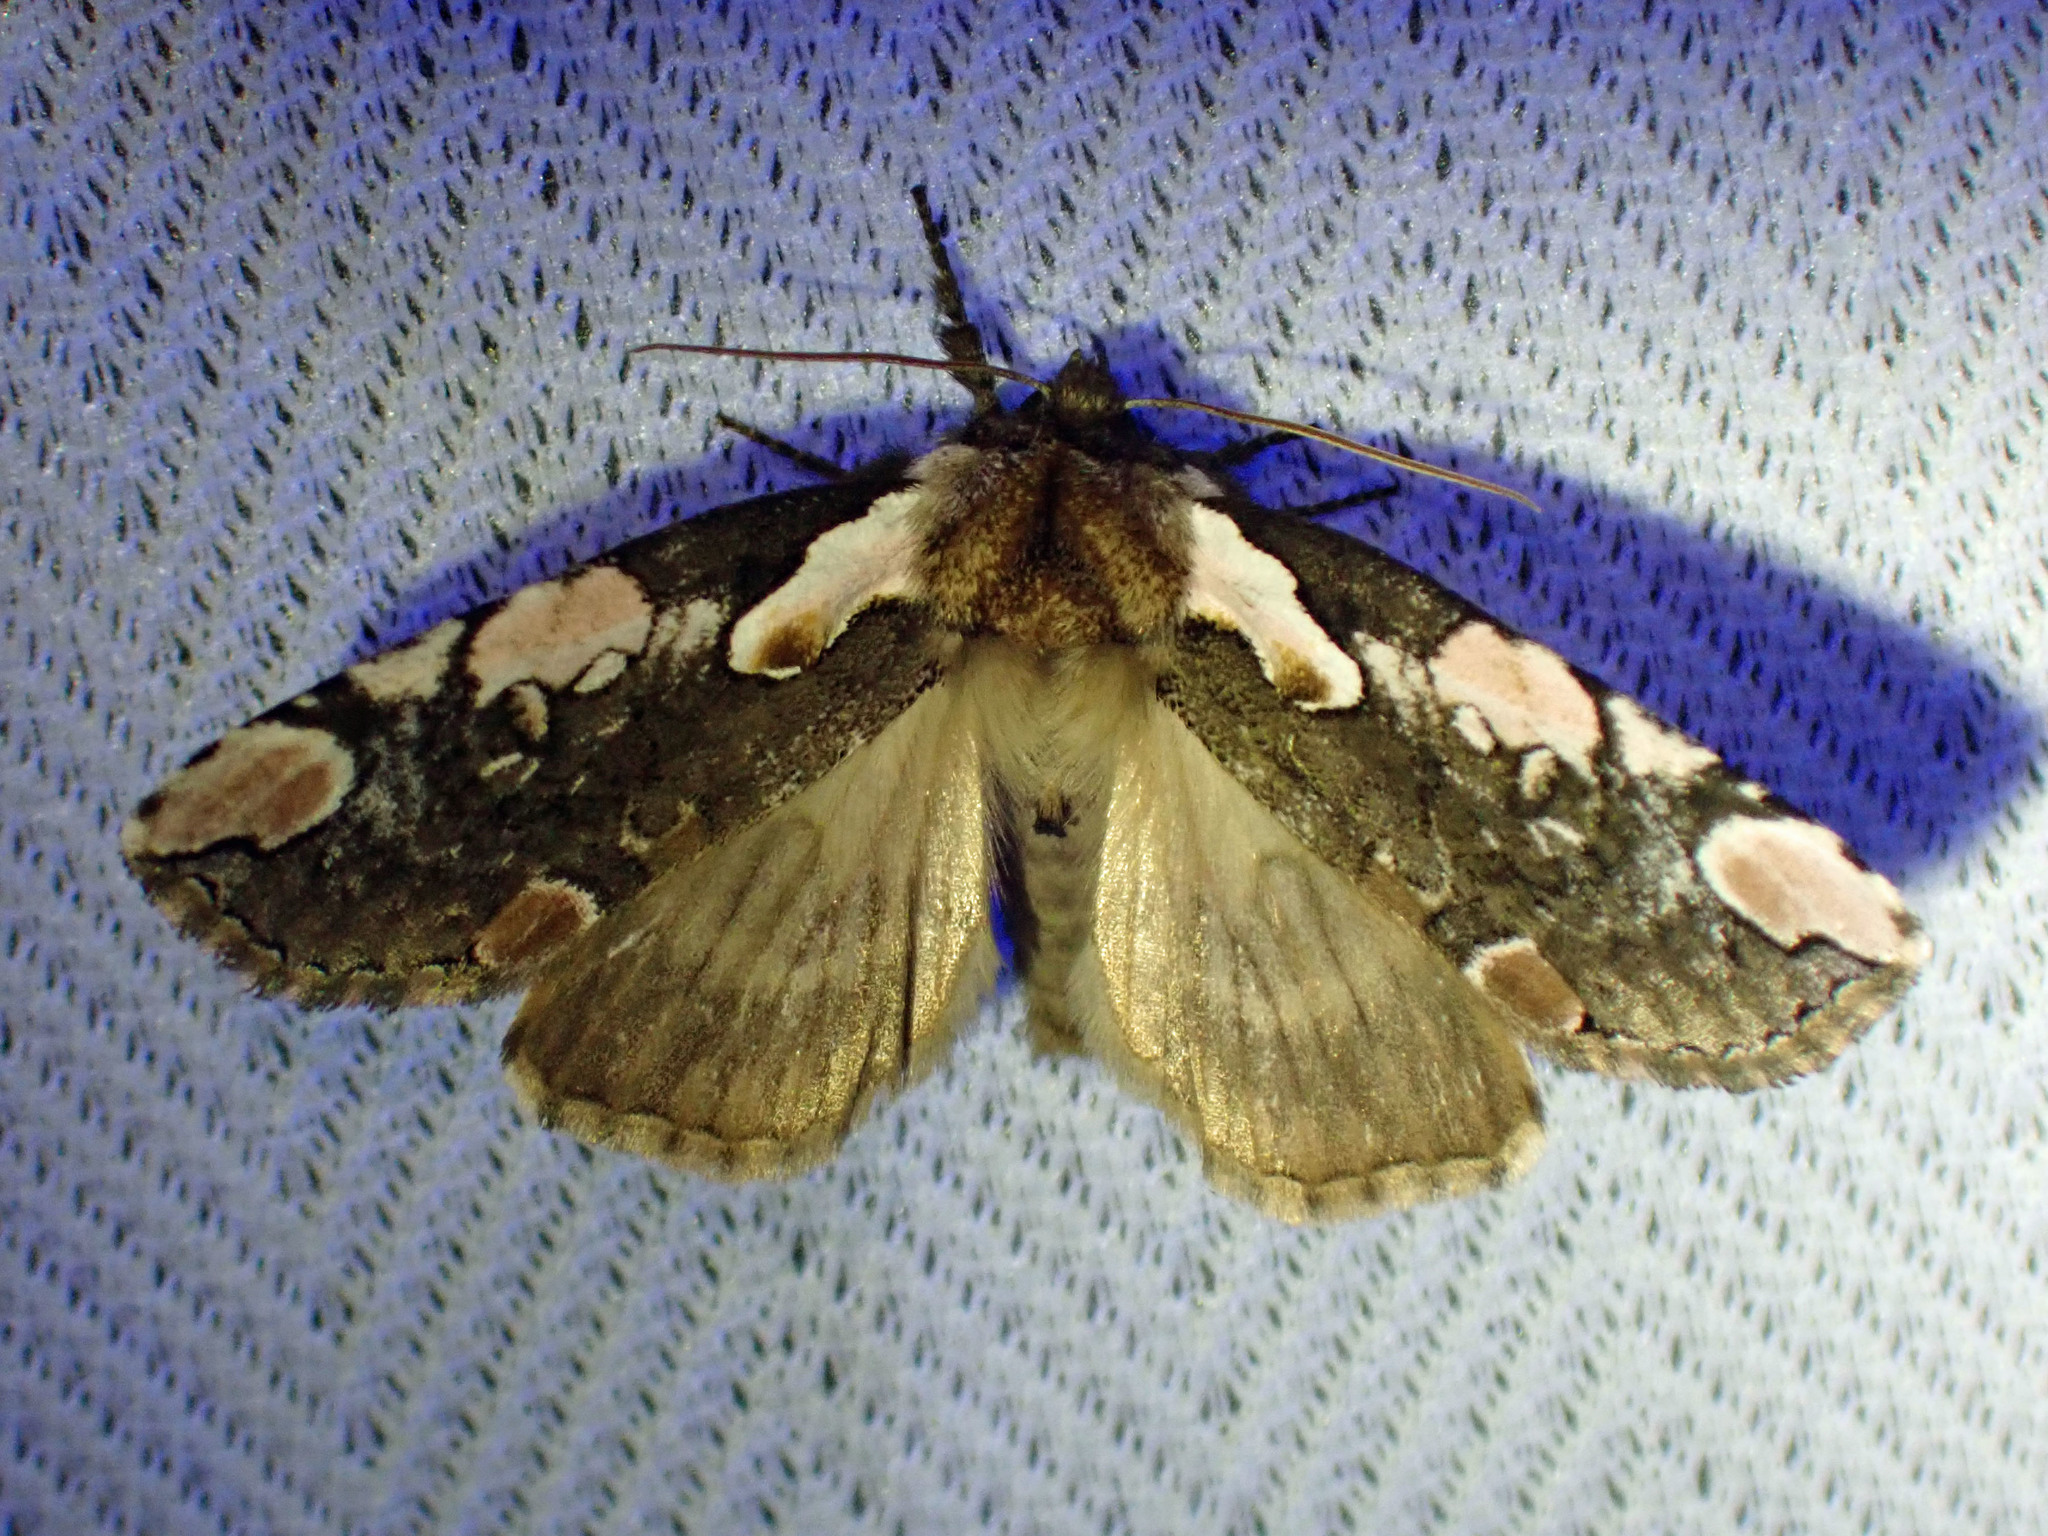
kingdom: Animalia
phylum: Arthropoda
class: Insecta
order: Lepidoptera
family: Drepanidae
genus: Euthyatira
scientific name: Euthyatira pudens
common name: Dogwood thyatirid moth
